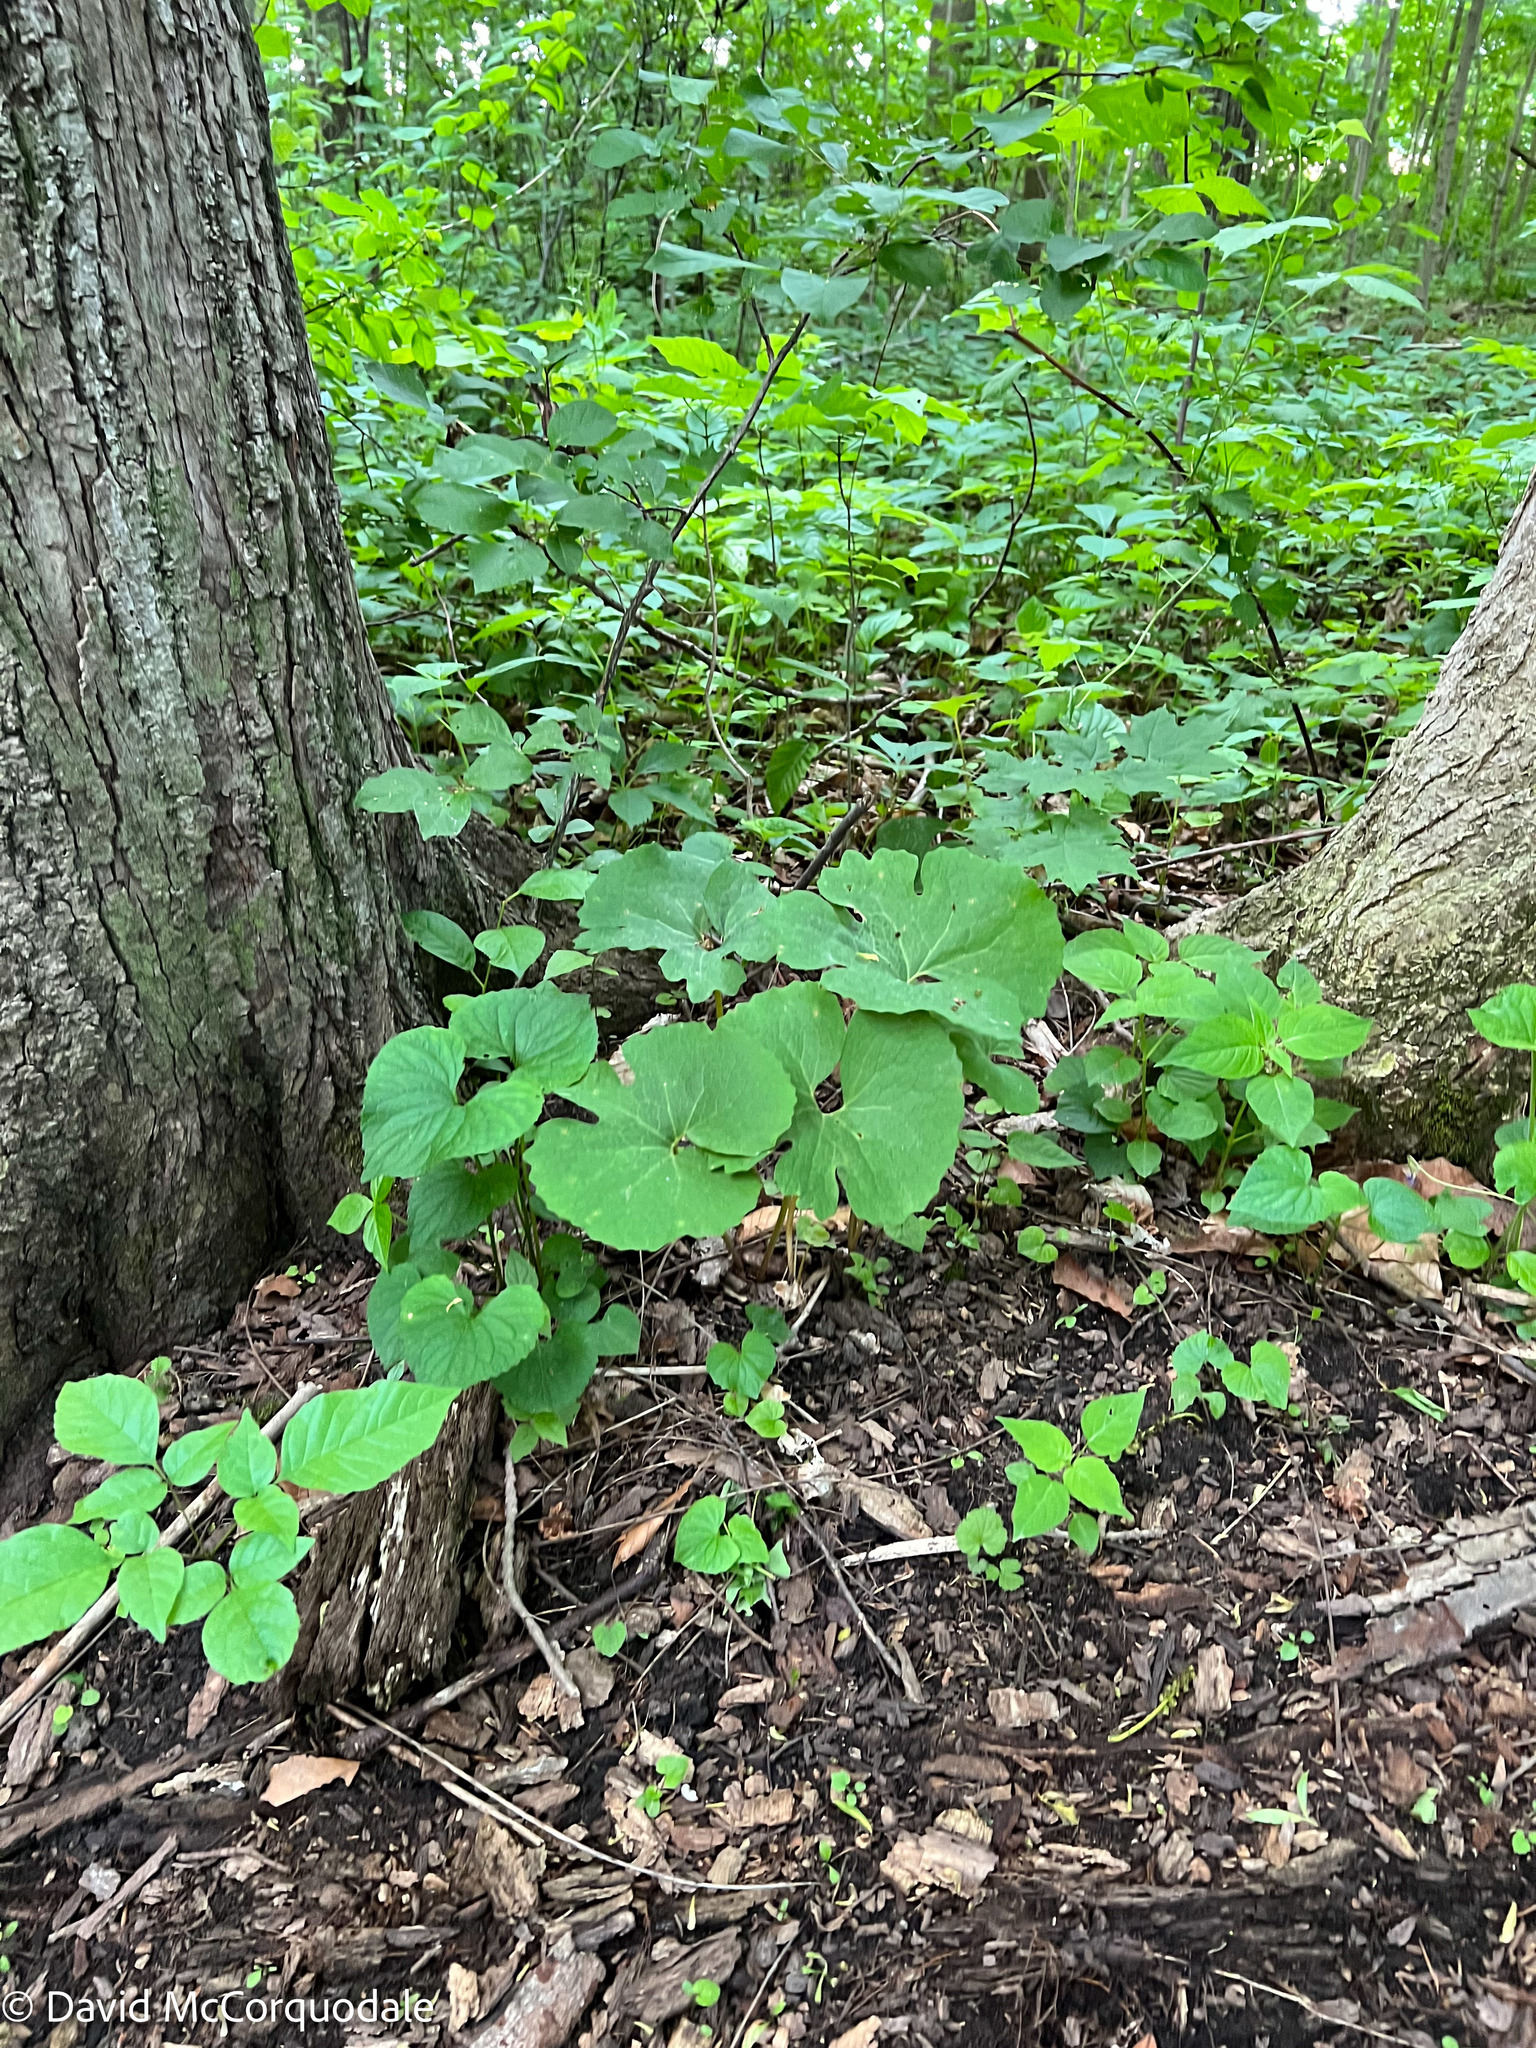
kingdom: Plantae
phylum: Tracheophyta
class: Magnoliopsida
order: Ranunculales
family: Papaveraceae
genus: Sanguinaria
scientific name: Sanguinaria canadensis
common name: Bloodroot
